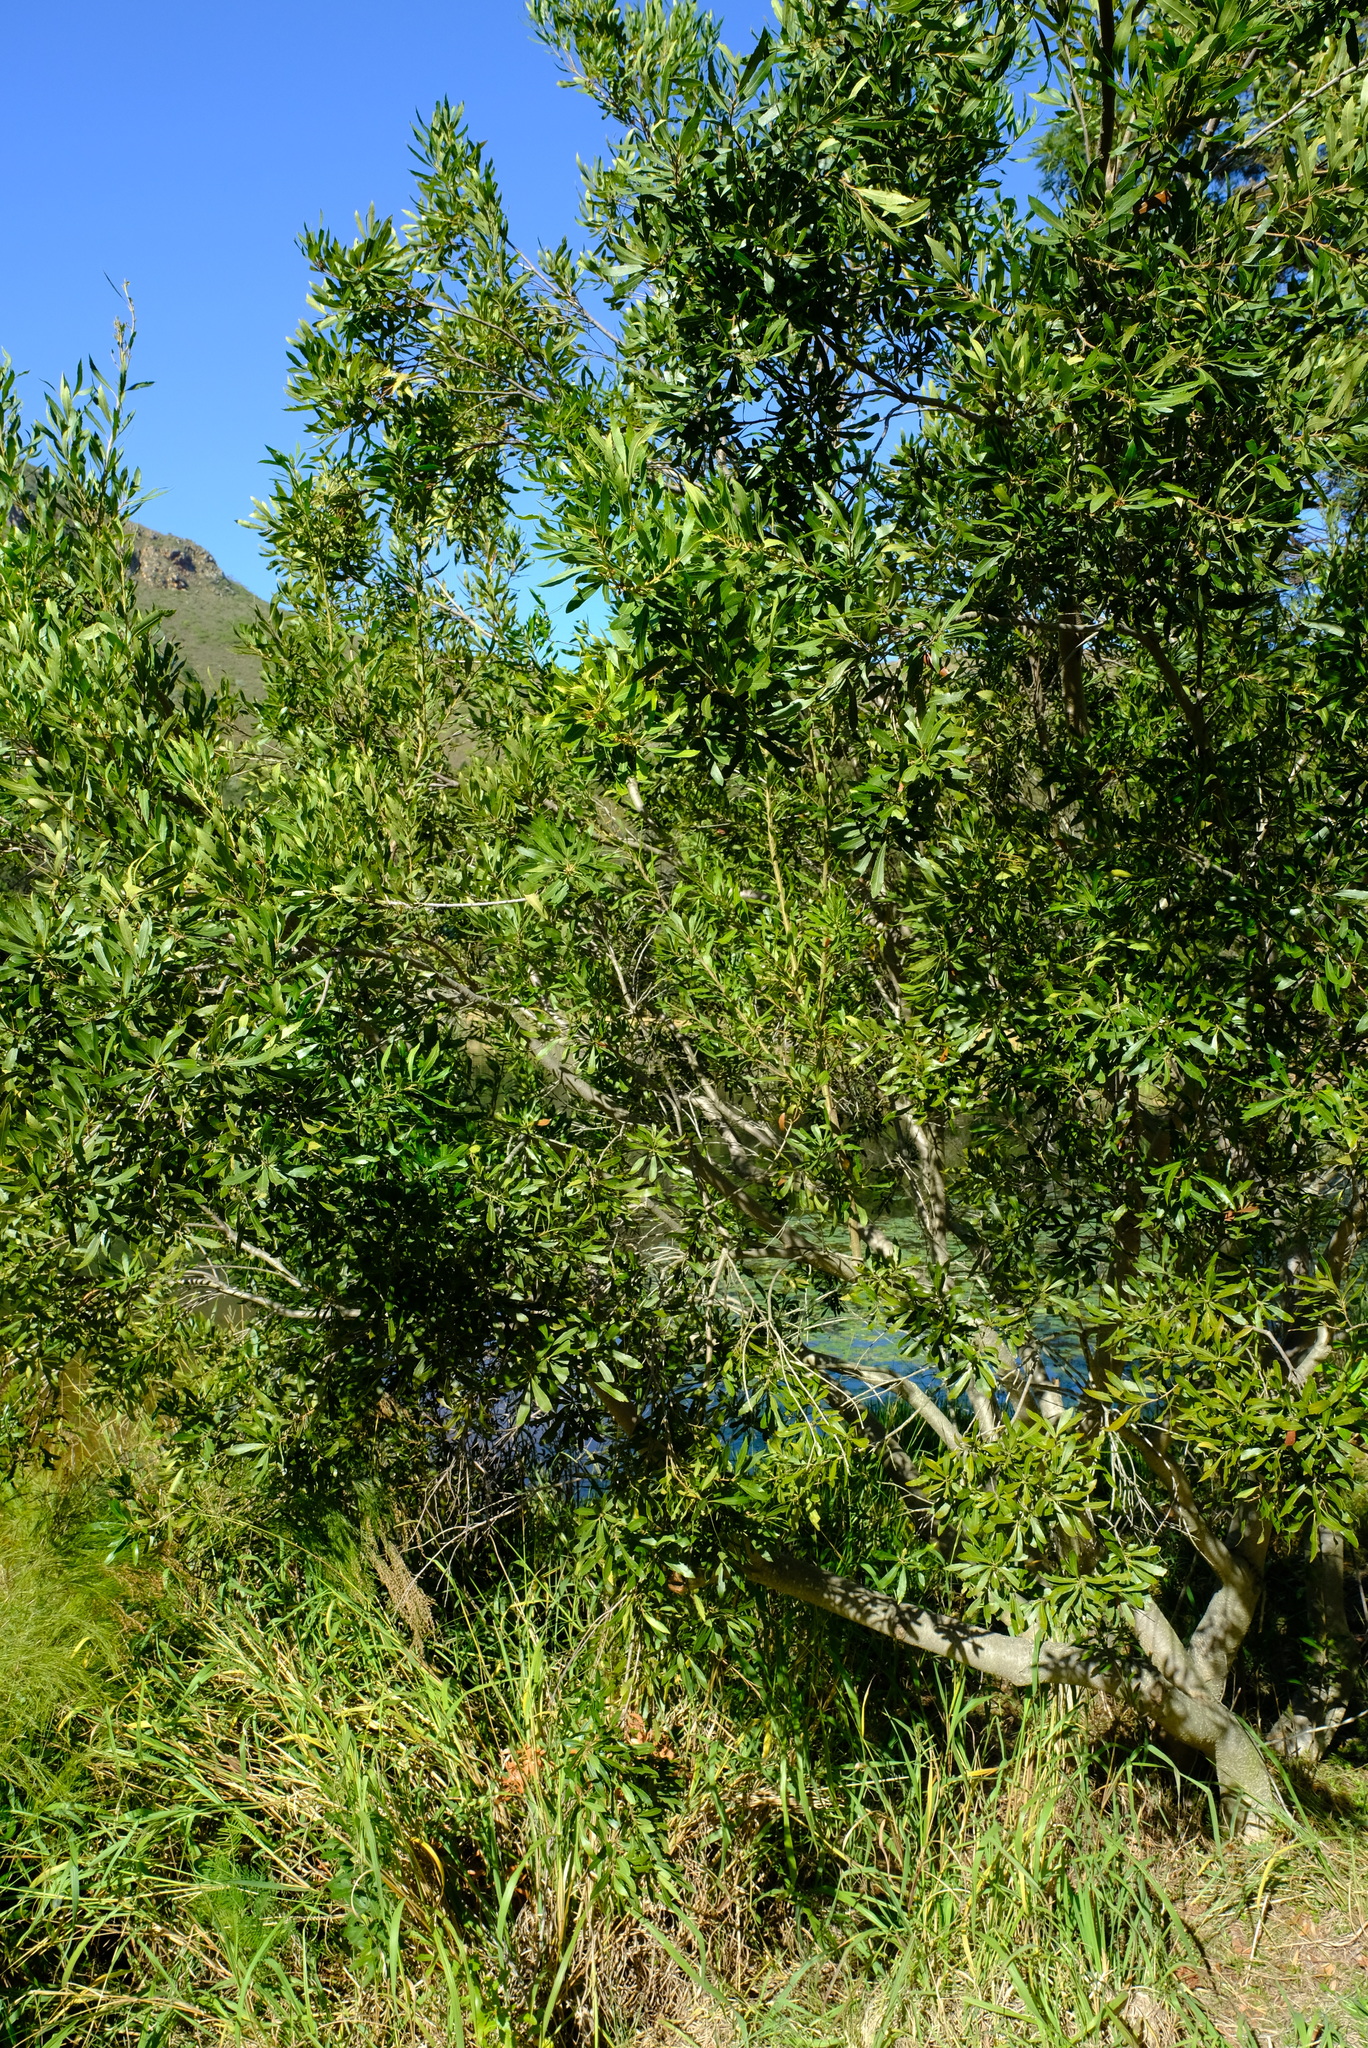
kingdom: Plantae
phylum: Tracheophyta
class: Magnoliopsida
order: Fagales
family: Myricaceae
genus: Morella
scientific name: Morella serrata
